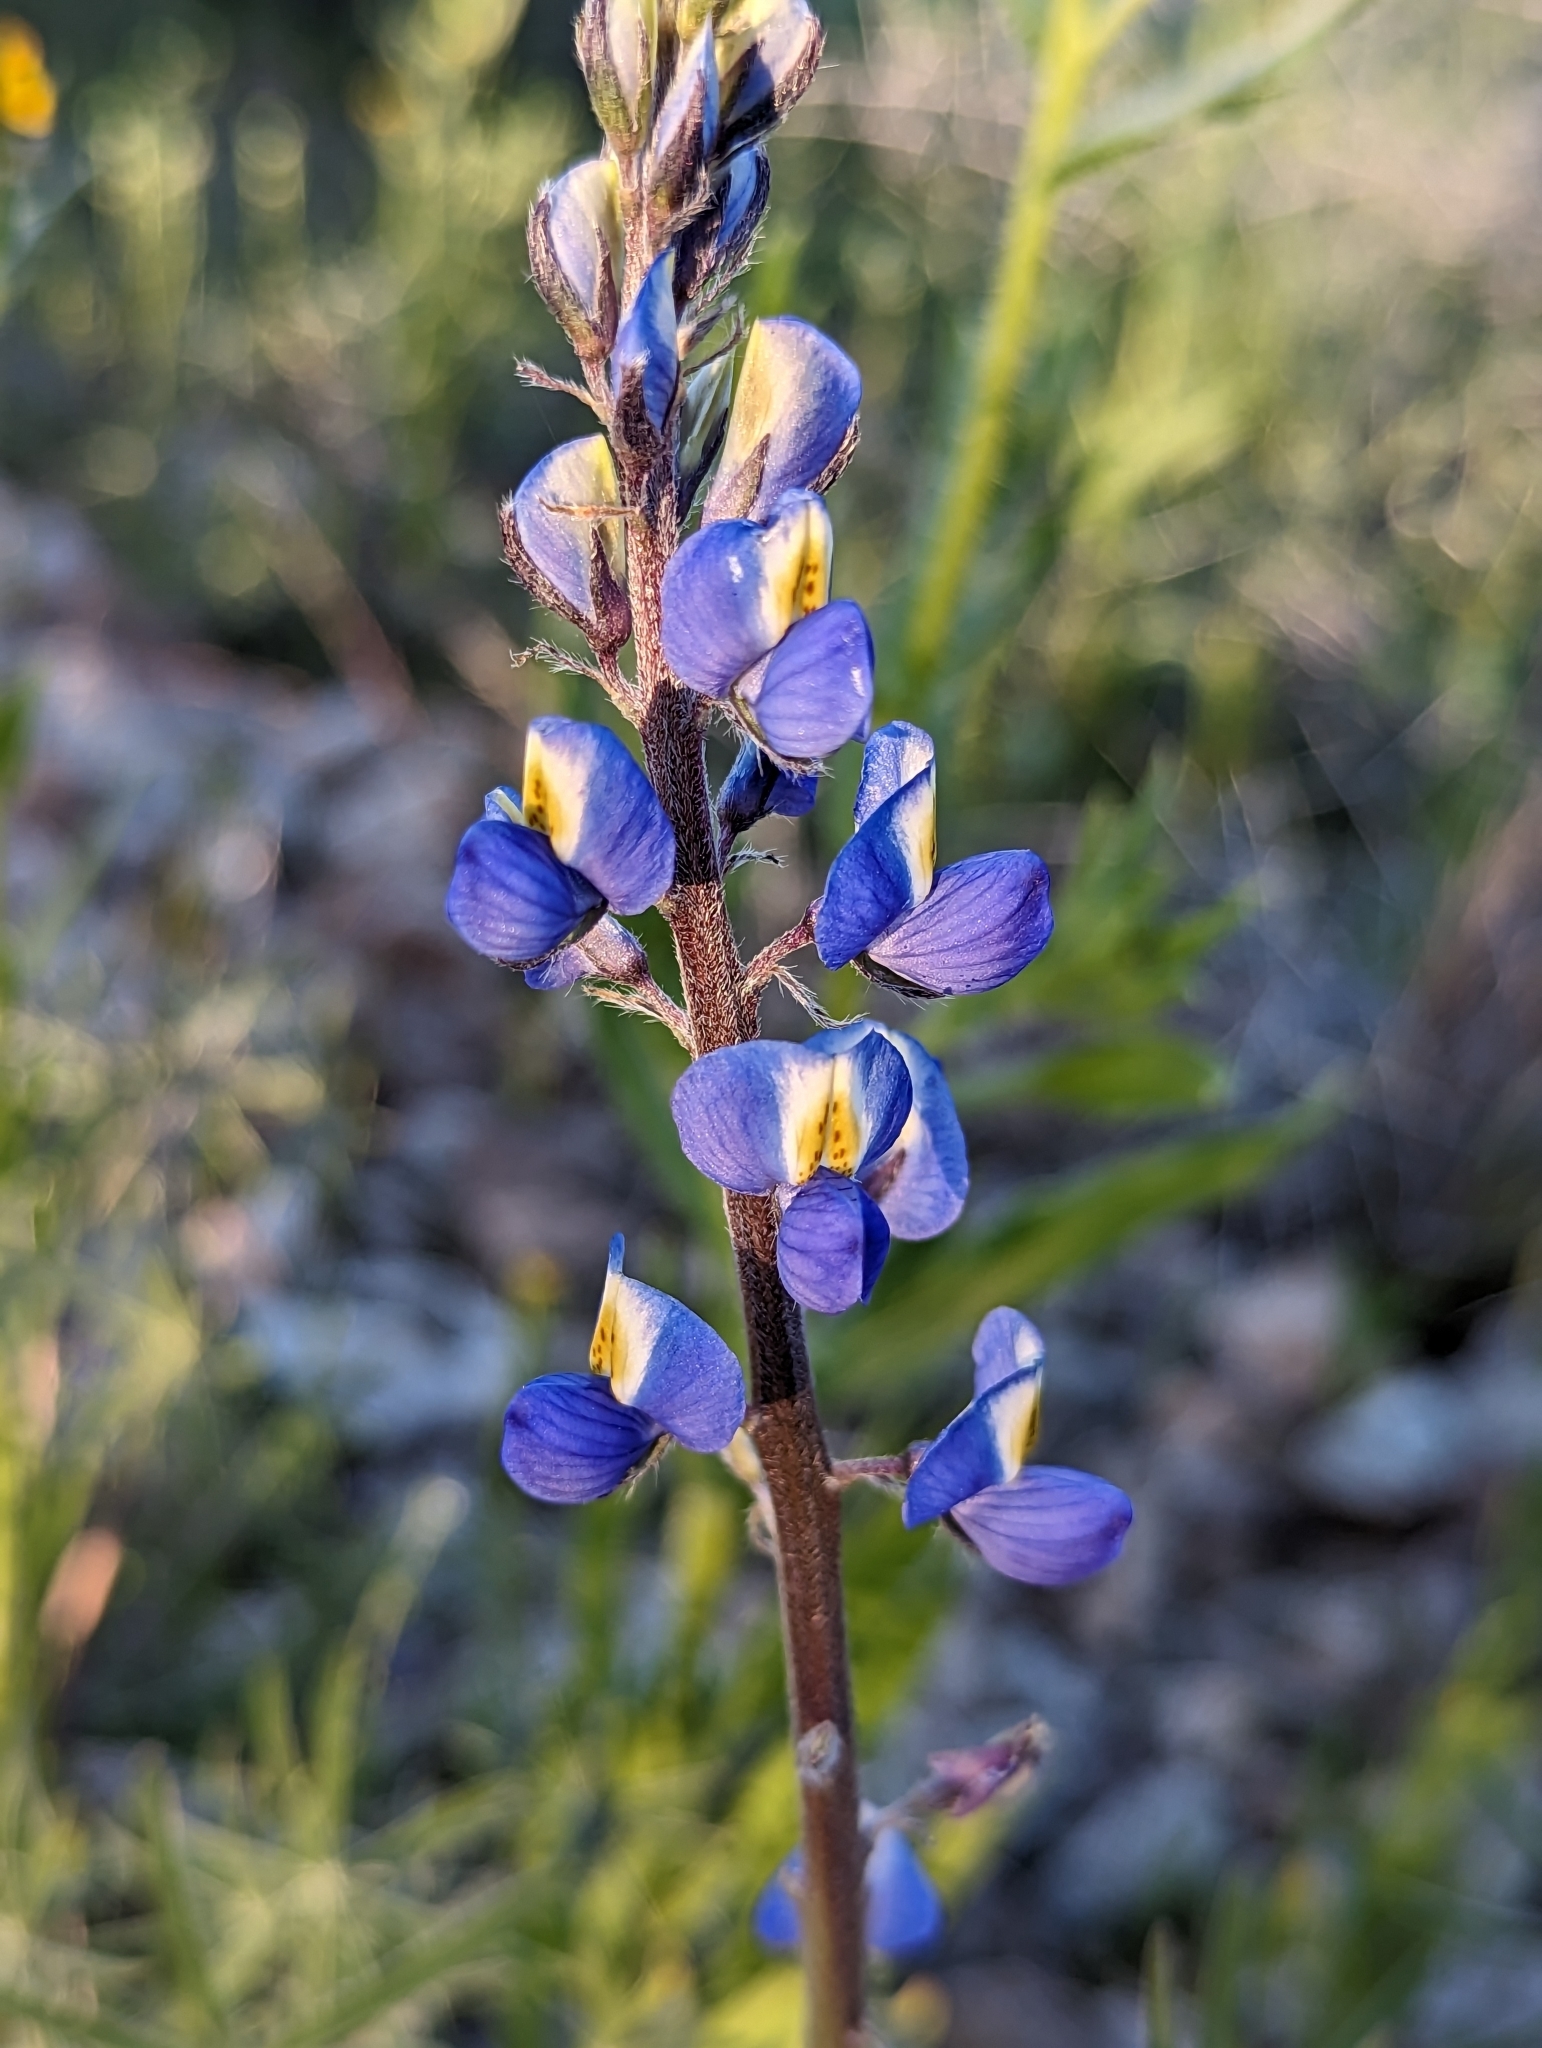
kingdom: Plantae
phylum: Tracheophyta
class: Magnoliopsida
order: Fabales
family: Fabaceae
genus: Lupinus
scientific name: Lupinus sparsiflorus
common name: Coulter's lupine
